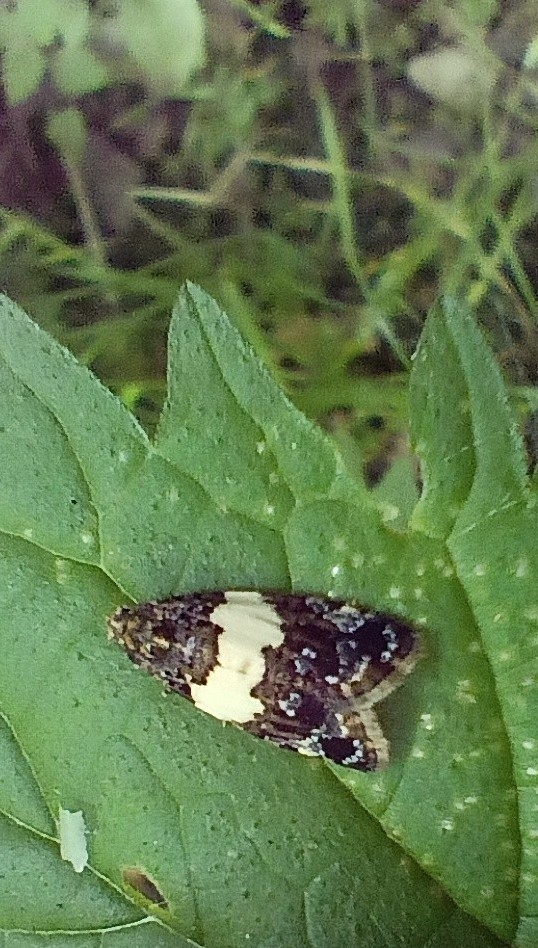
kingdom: Animalia
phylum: Arthropoda
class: Insecta
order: Lepidoptera
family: Tortricidae
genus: Olindia
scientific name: Olindia schumacherana
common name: White-barred tortrix
